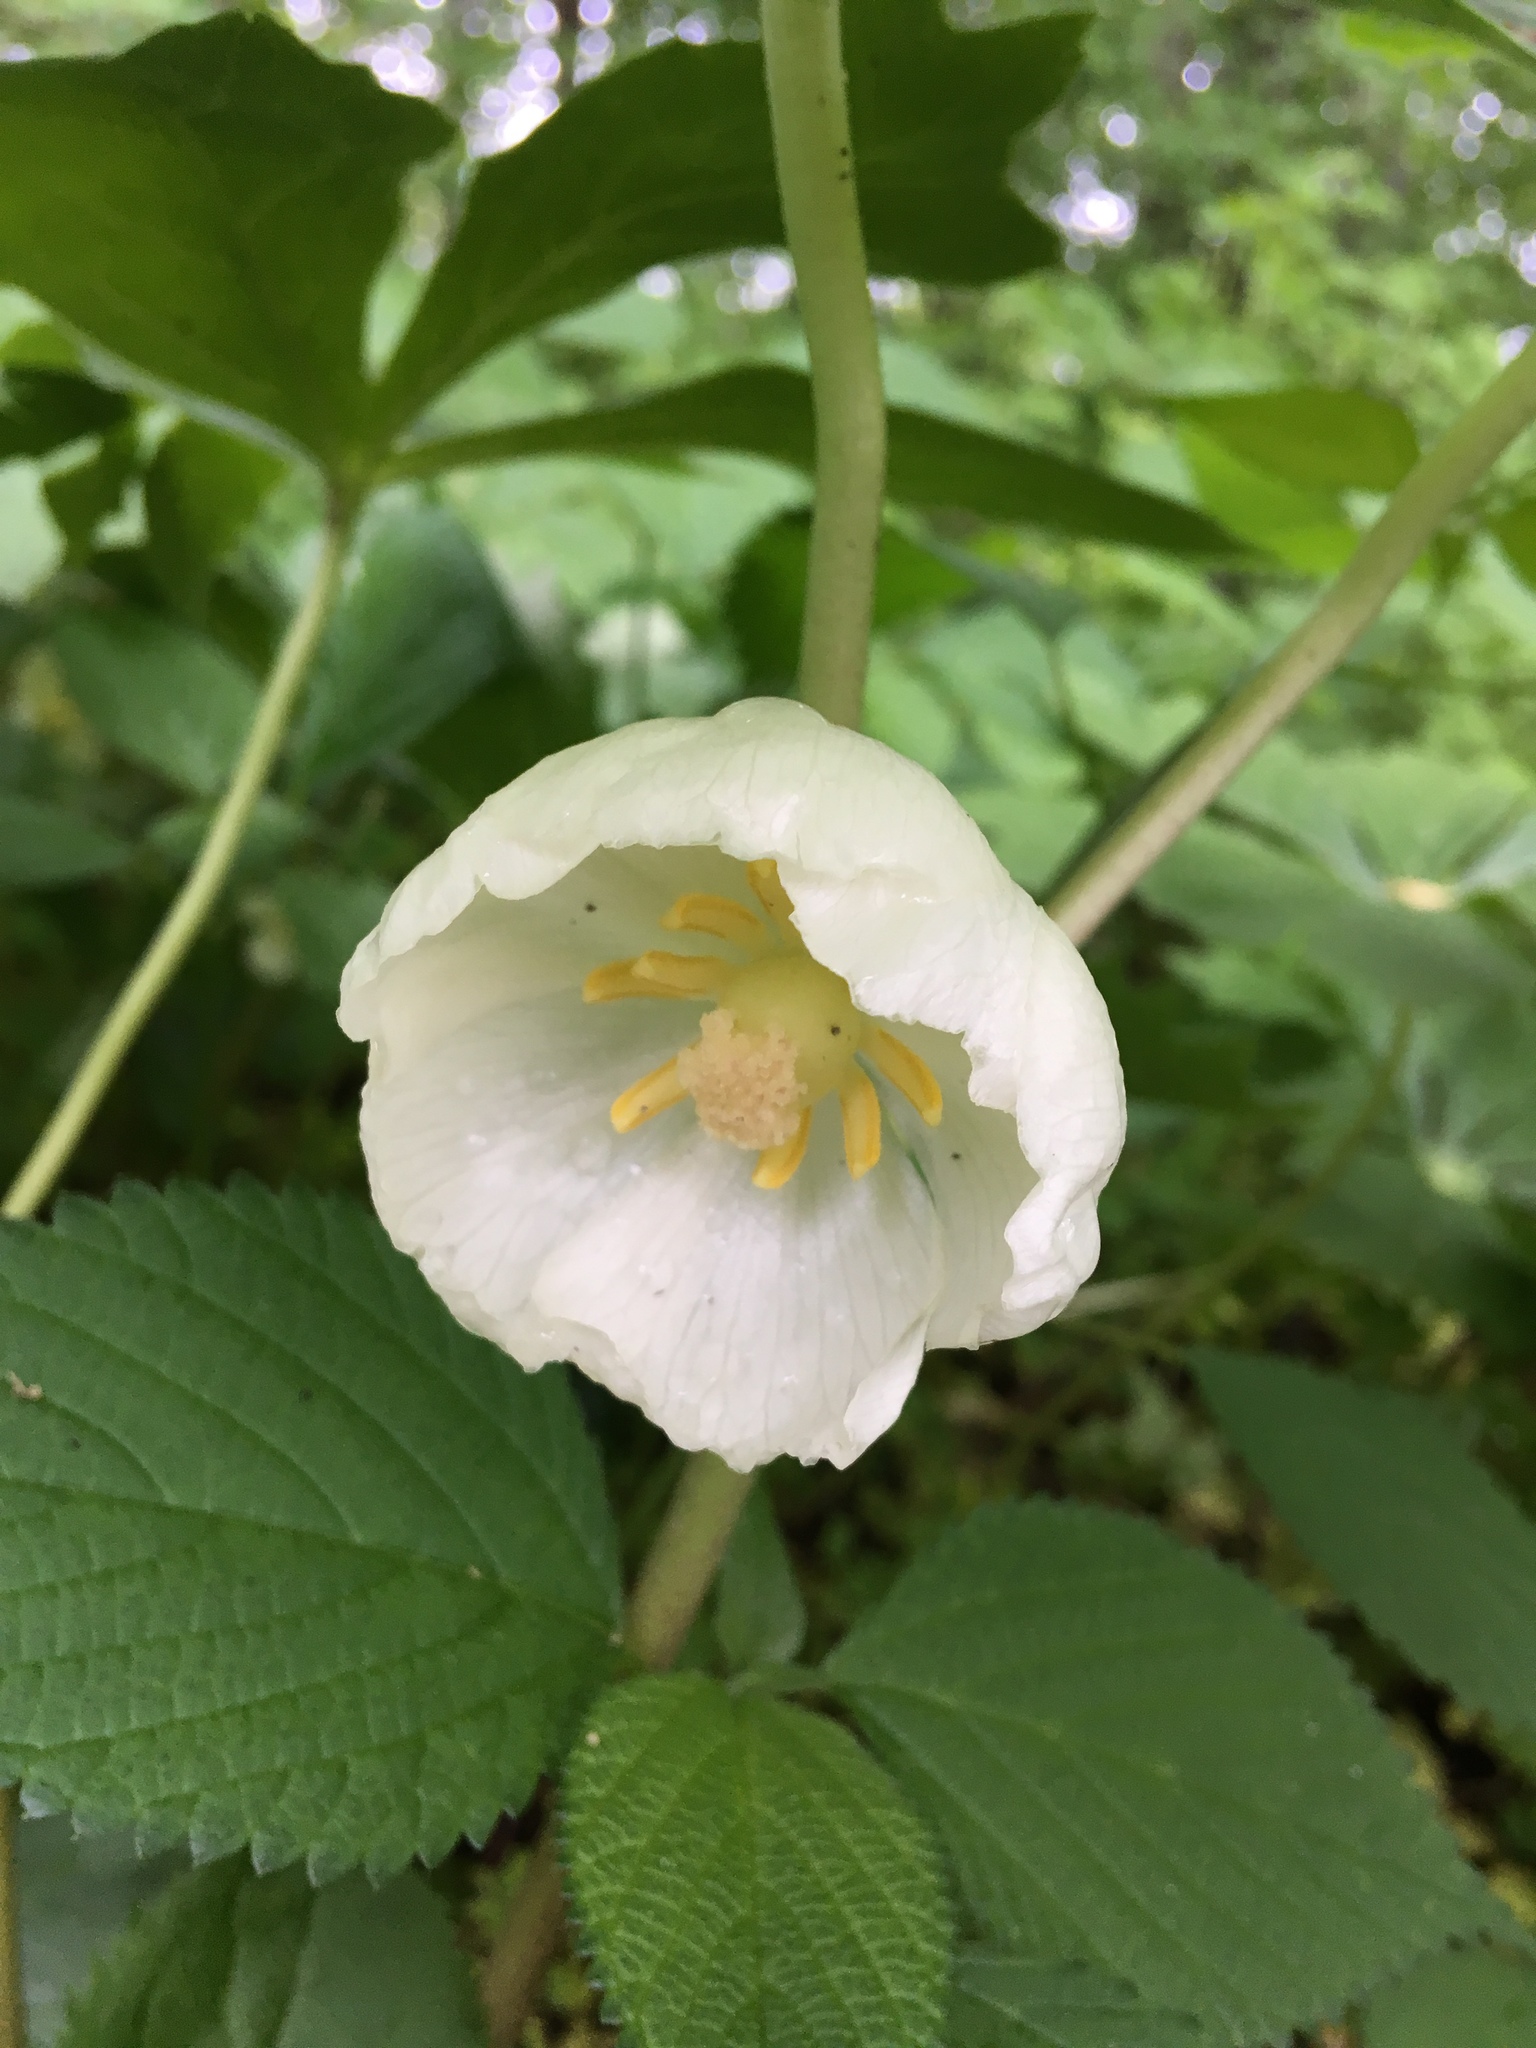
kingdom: Plantae
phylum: Tracheophyta
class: Magnoliopsida
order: Ranunculales
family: Berberidaceae
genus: Podophyllum
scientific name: Podophyllum peltatum
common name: Wild mandrake
